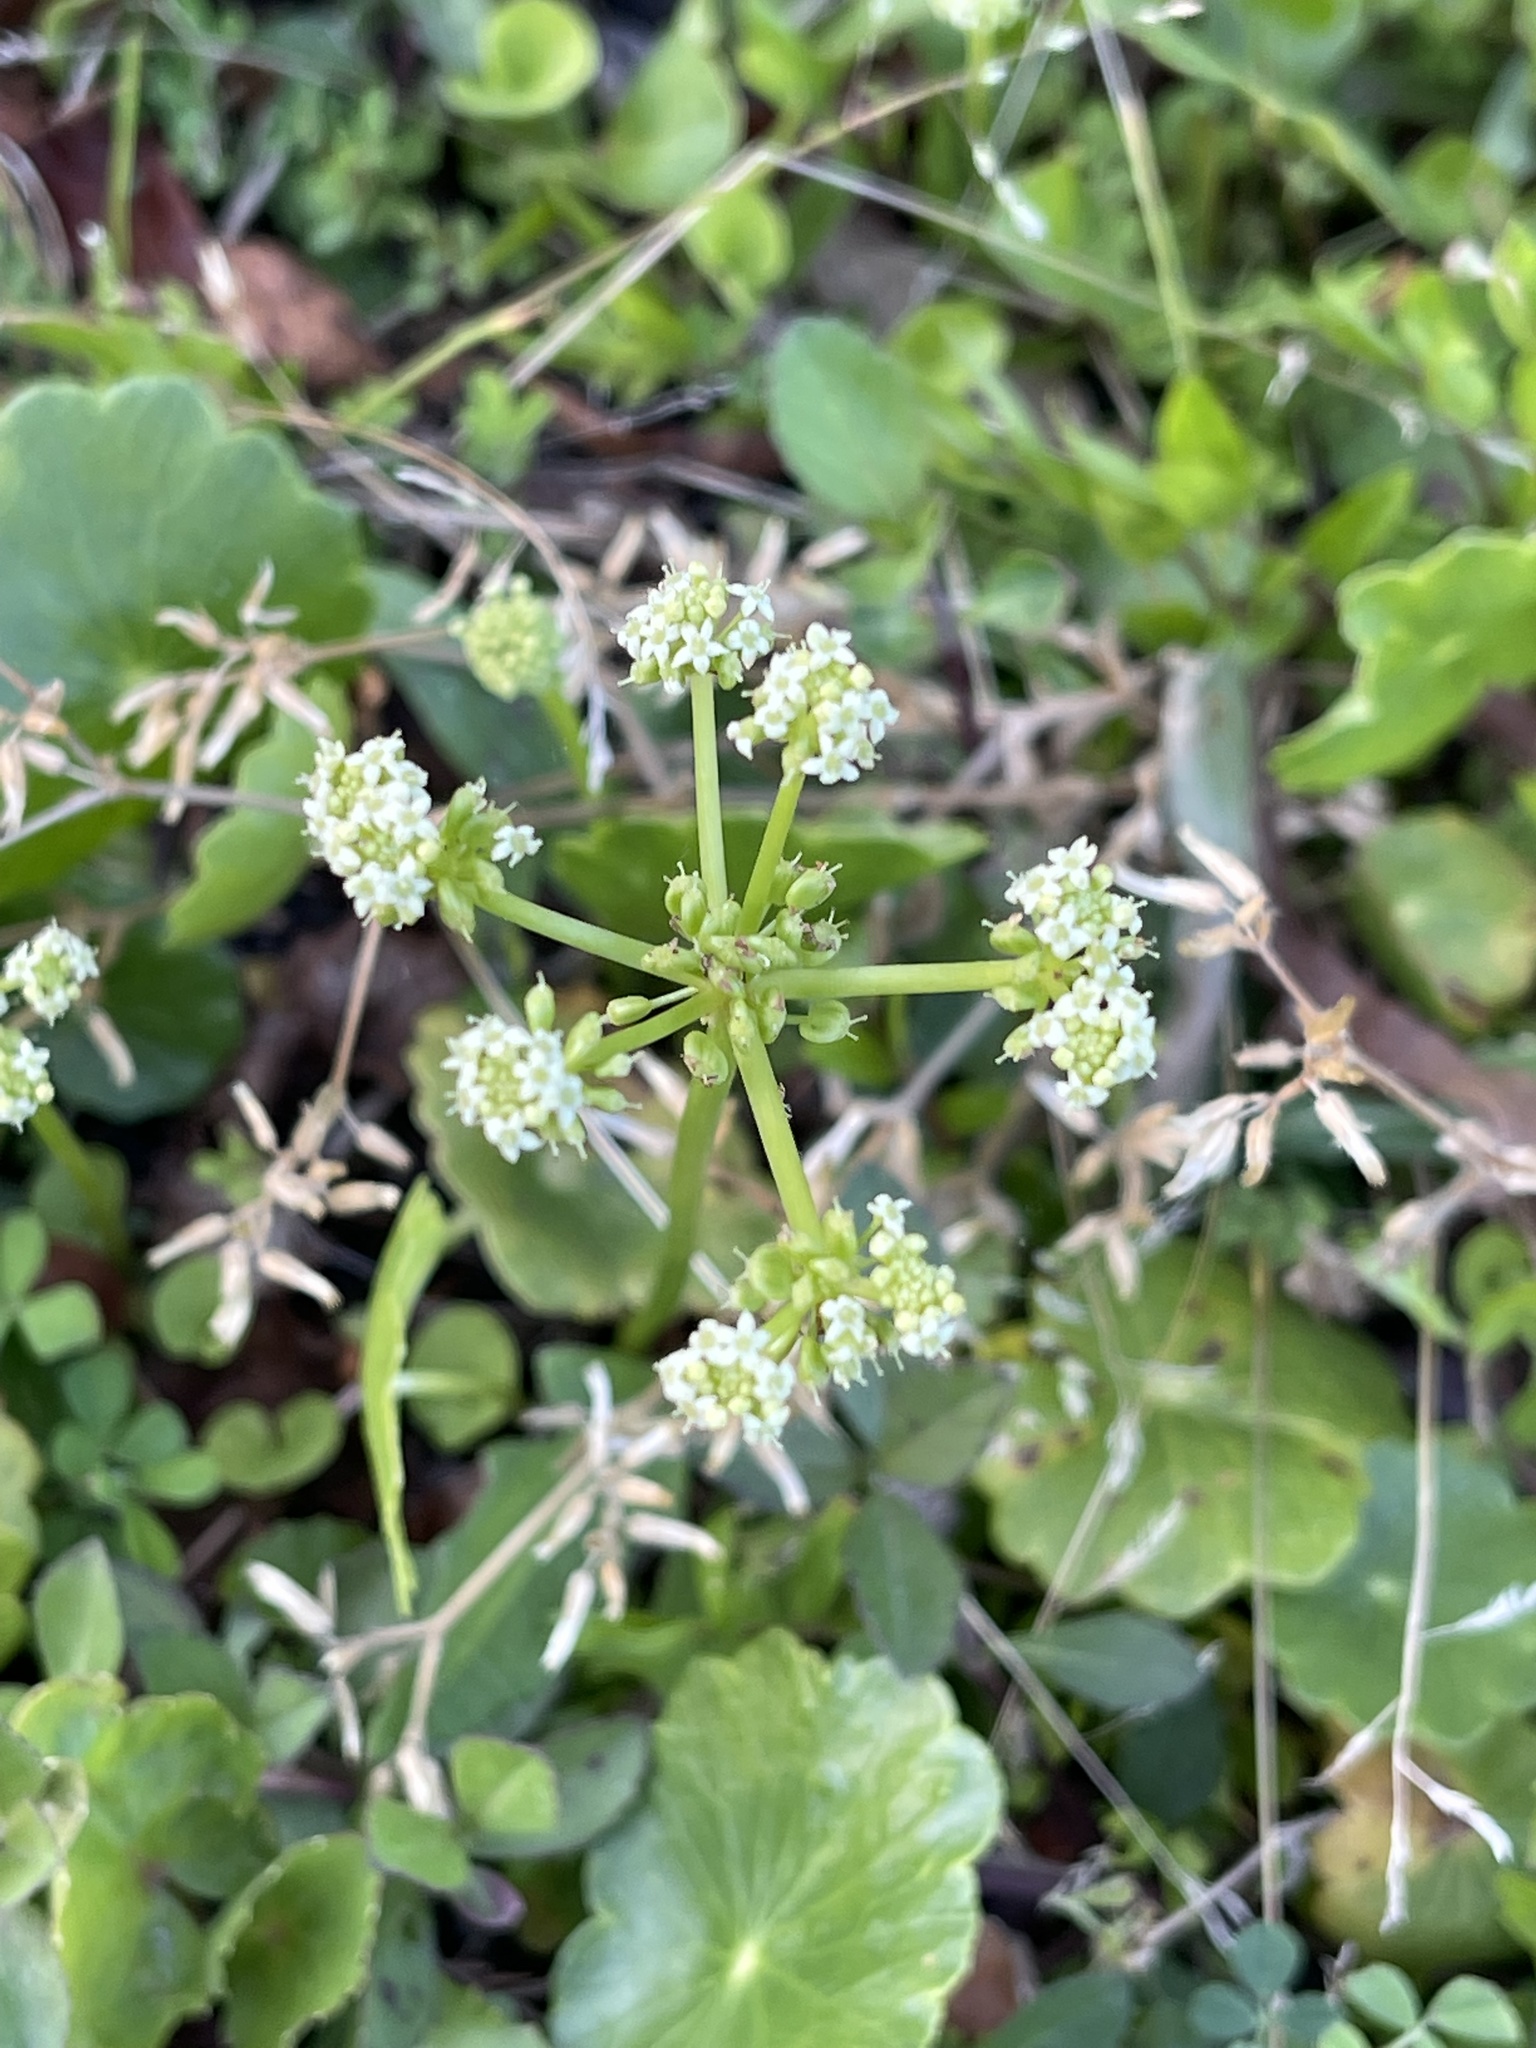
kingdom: Plantae
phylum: Tracheophyta
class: Magnoliopsida
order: Apiales
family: Araliaceae
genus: Hydrocotyle
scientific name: Hydrocotyle bonariensis
